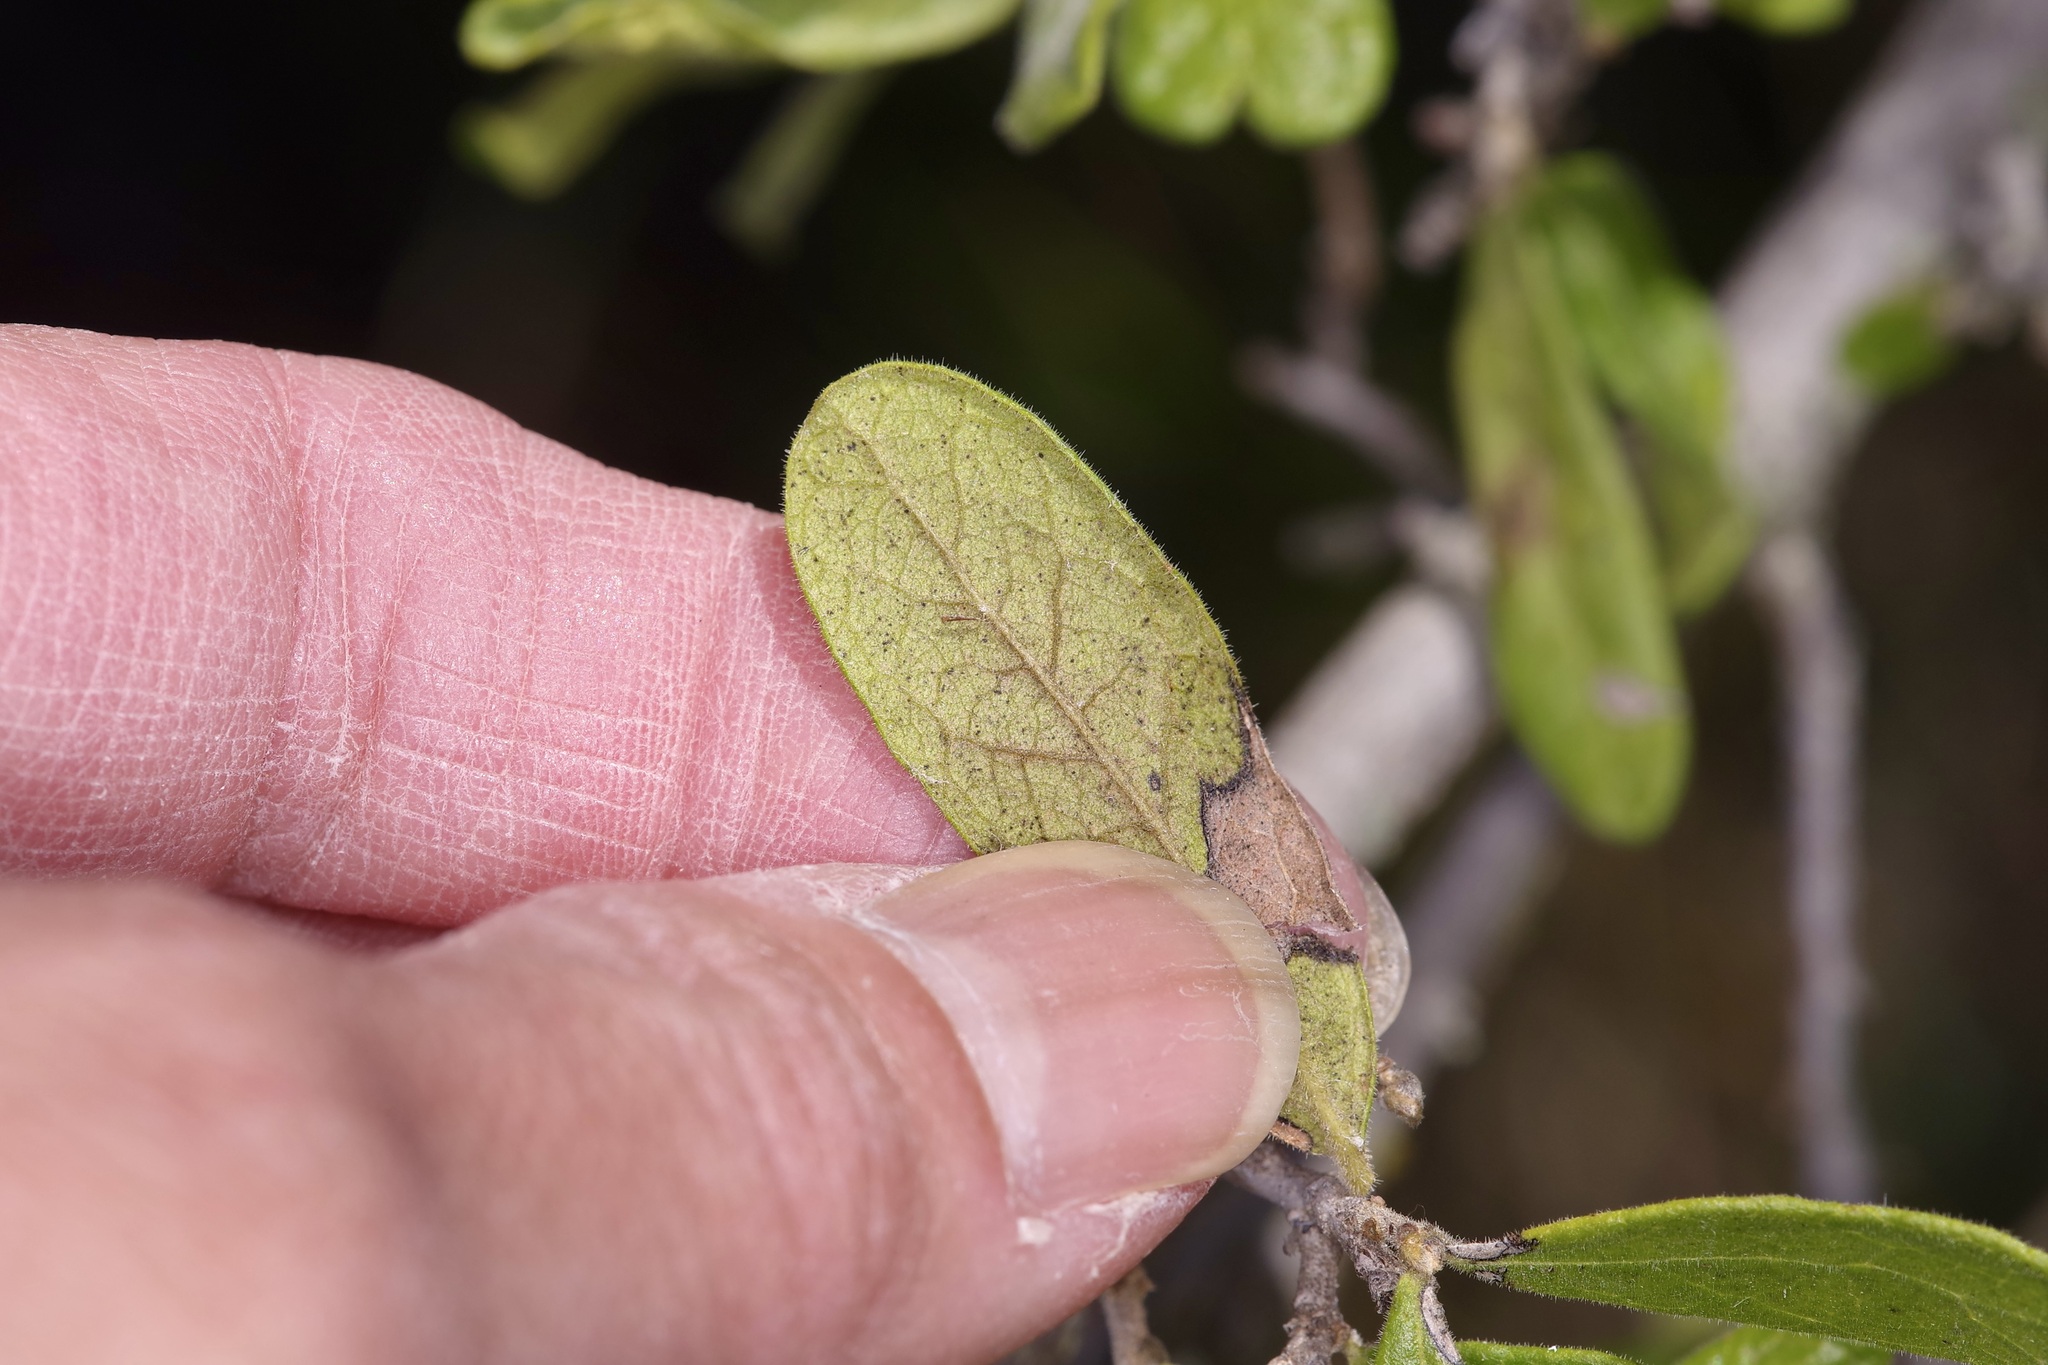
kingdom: Plantae
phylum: Tracheophyta
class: Magnoliopsida
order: Ericales
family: Sapotaceae
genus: Sideroxylon
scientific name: Sideroxylon lanuginosum
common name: Chittamwood
